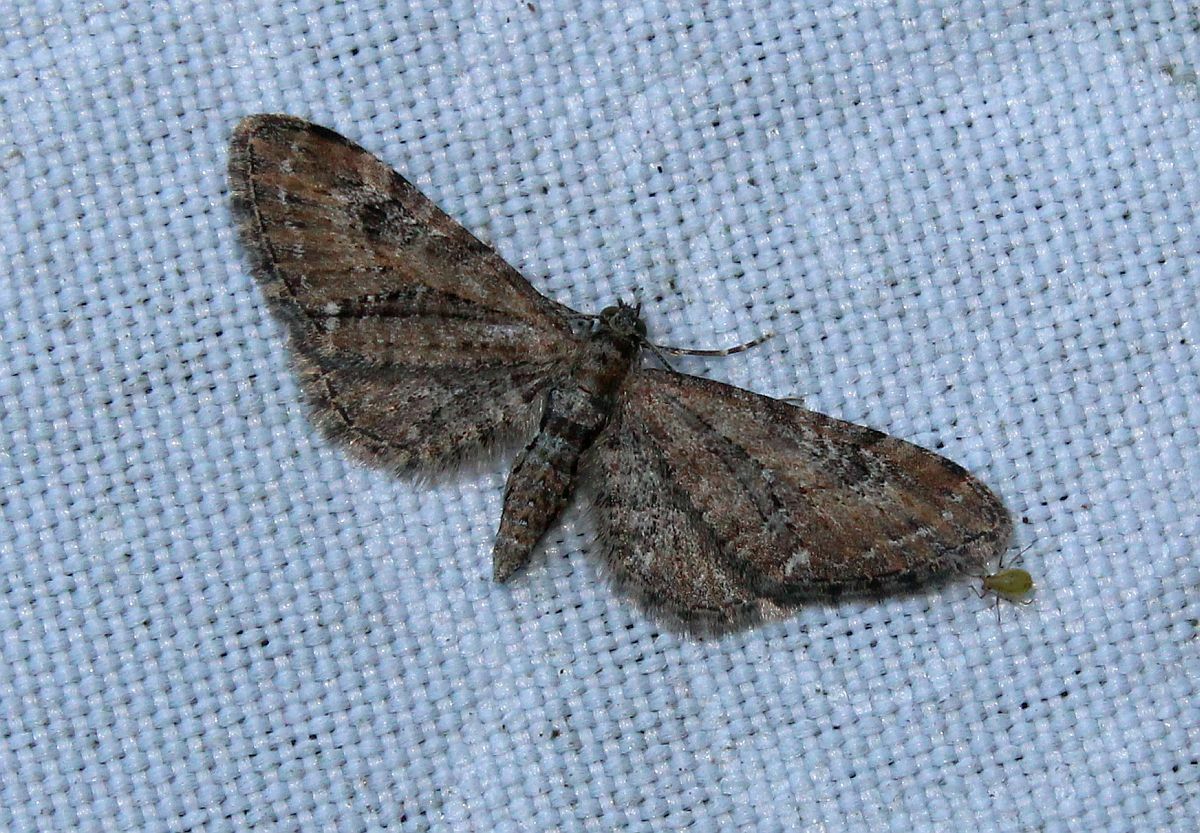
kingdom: Animalia
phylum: Arthropoda
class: Insecta
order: Lepidoptera
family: Geometridae
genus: Eupithecia
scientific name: Eupithecia vulgata
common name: Common pug
